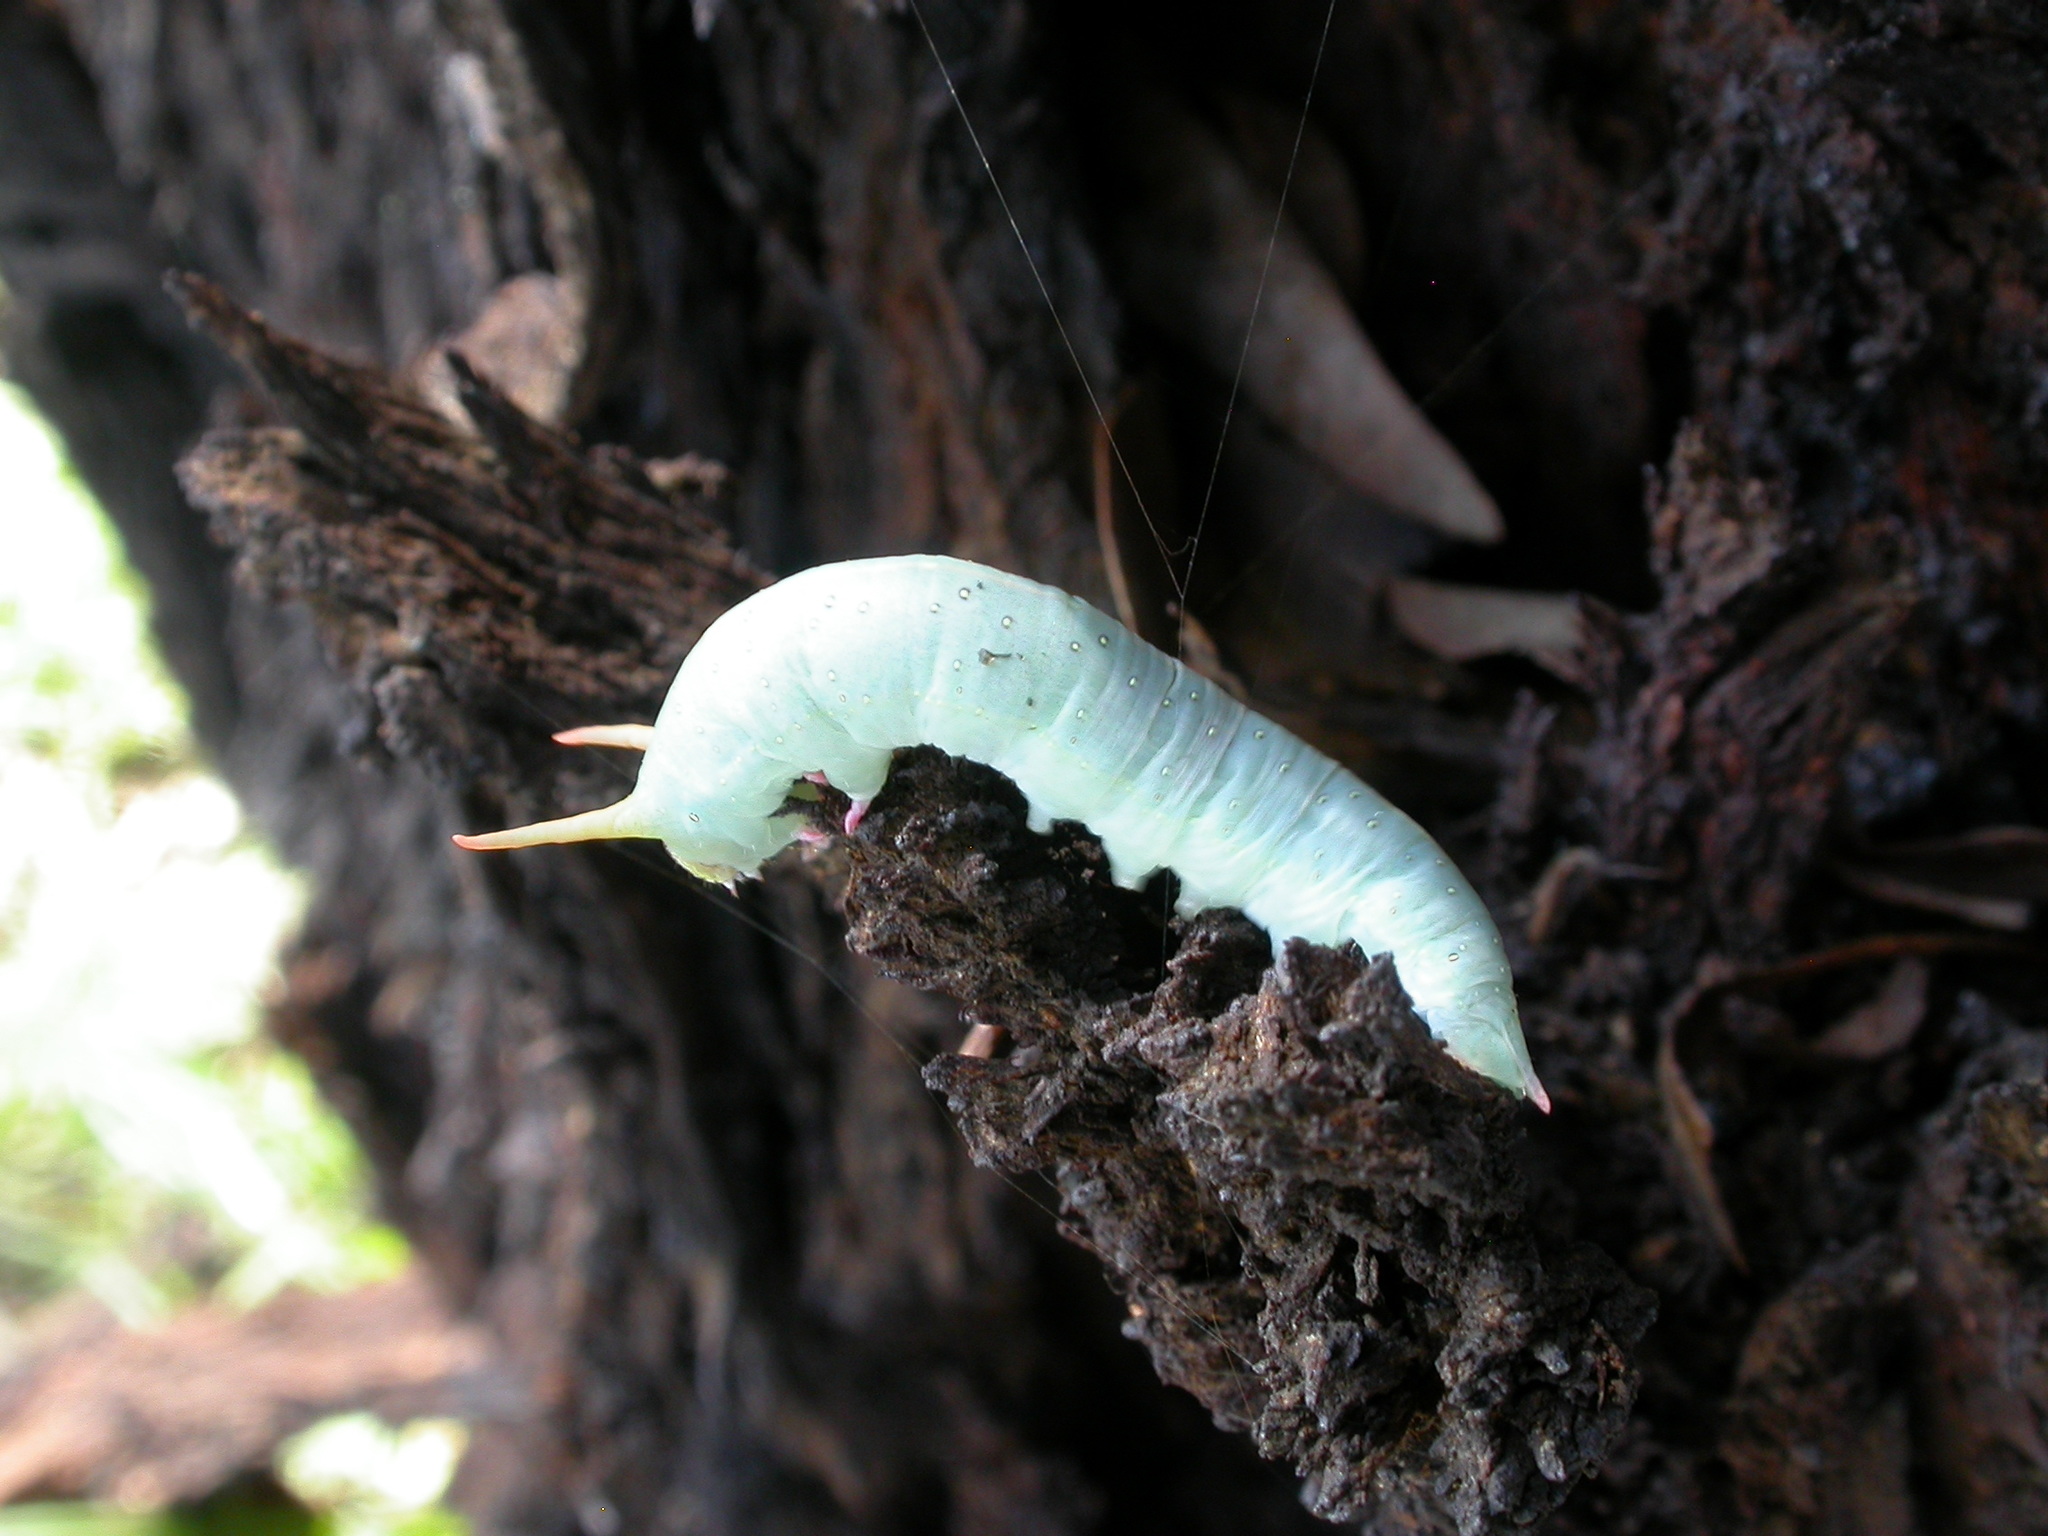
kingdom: Animalia
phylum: Arthropoda
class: Insecta
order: Lepidoptera
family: Geometridae
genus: Fisera
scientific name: Fisera eribola
